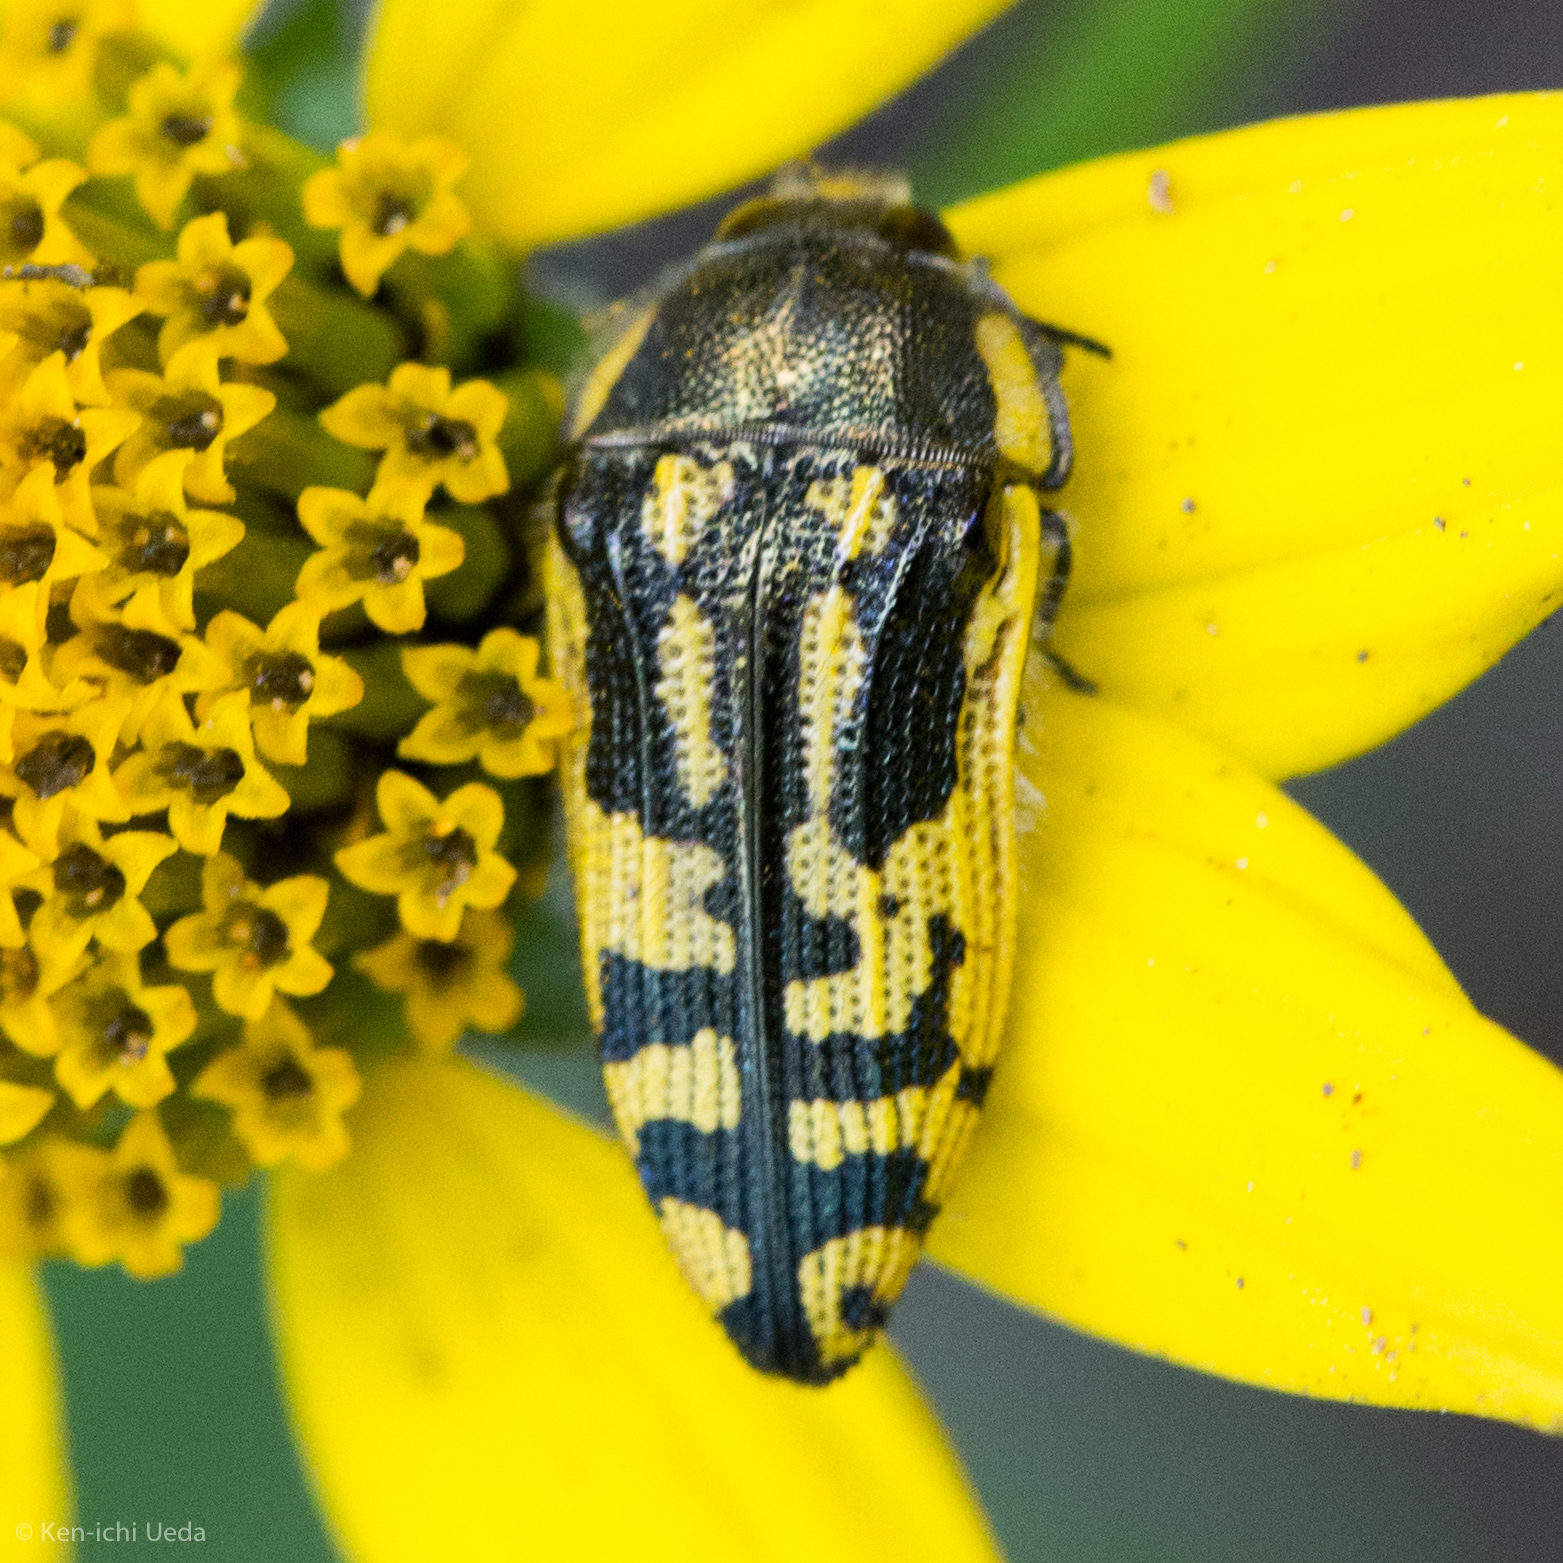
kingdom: Animalia
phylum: Arthropoda
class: Insecta
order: Coleoptera
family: Buprestidae
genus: Acmaeodera
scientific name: Acmaeodera amplicollis
